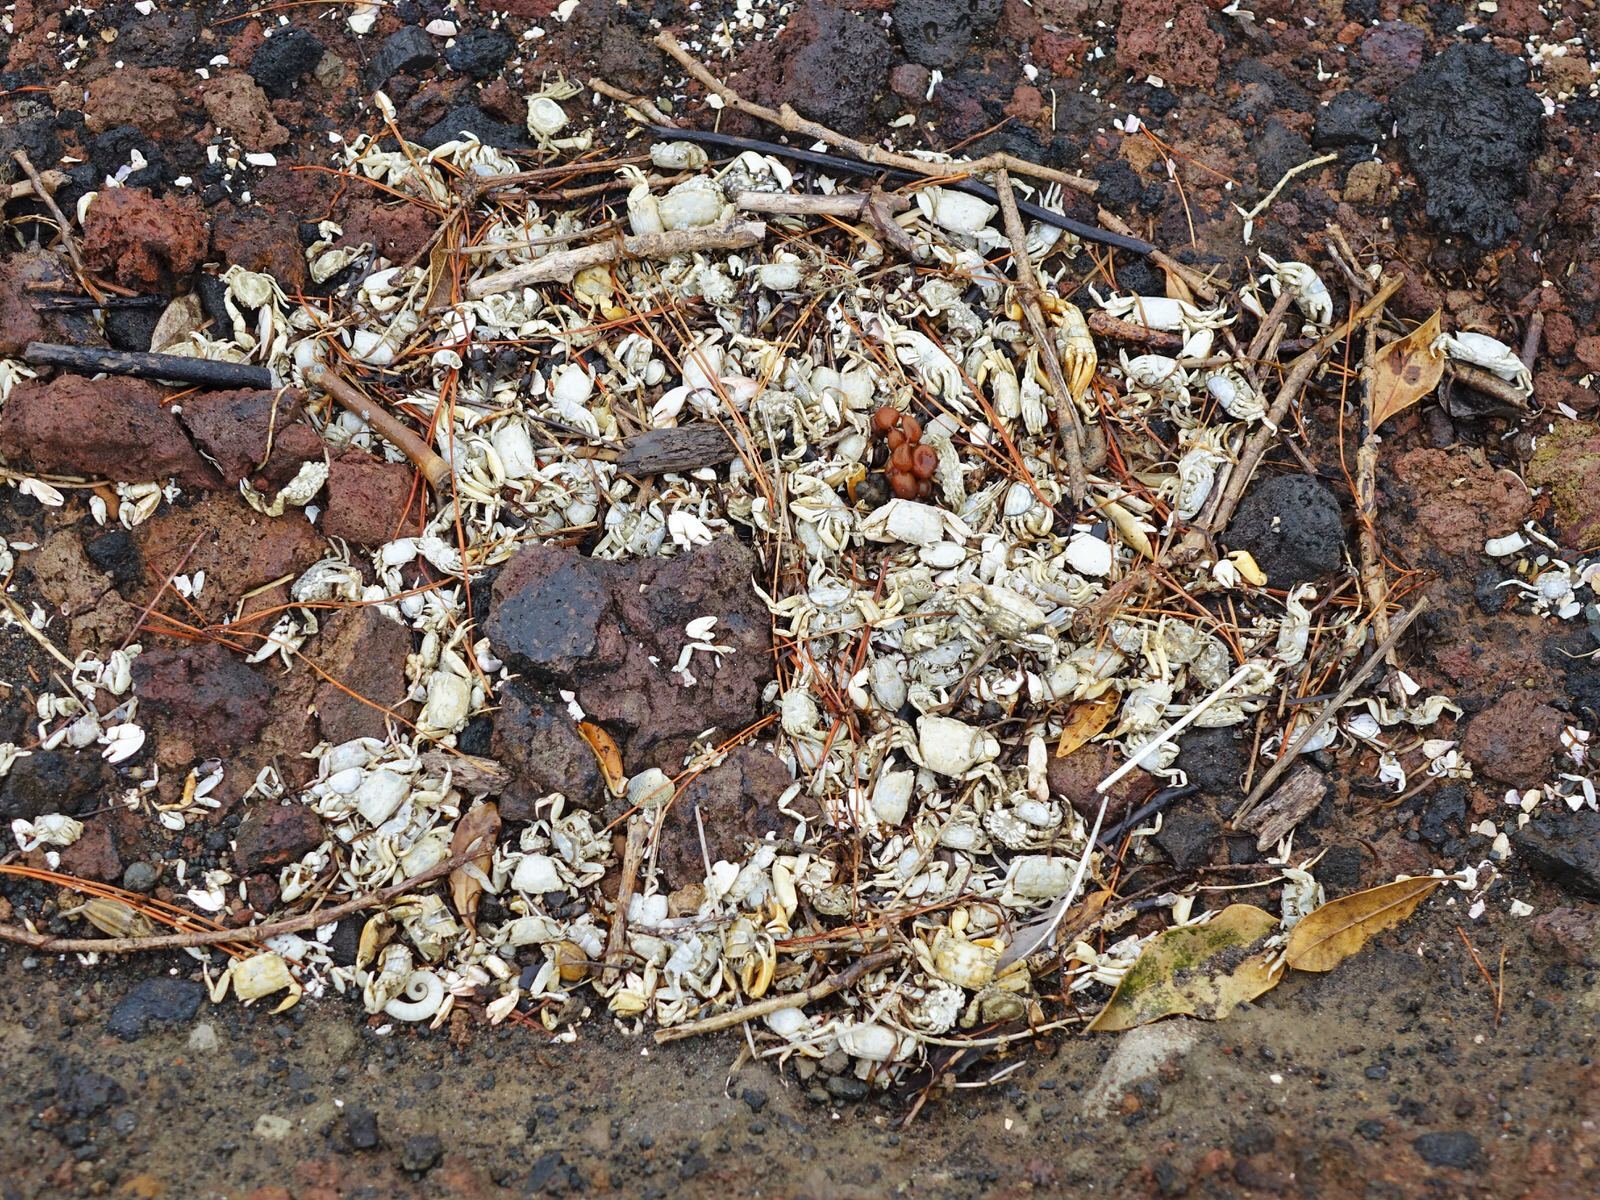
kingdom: Animalia
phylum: Arthropoda
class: Malacostraca
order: Decapoda
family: Varunidae
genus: Austrohelice
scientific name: Austrohelice crassa
